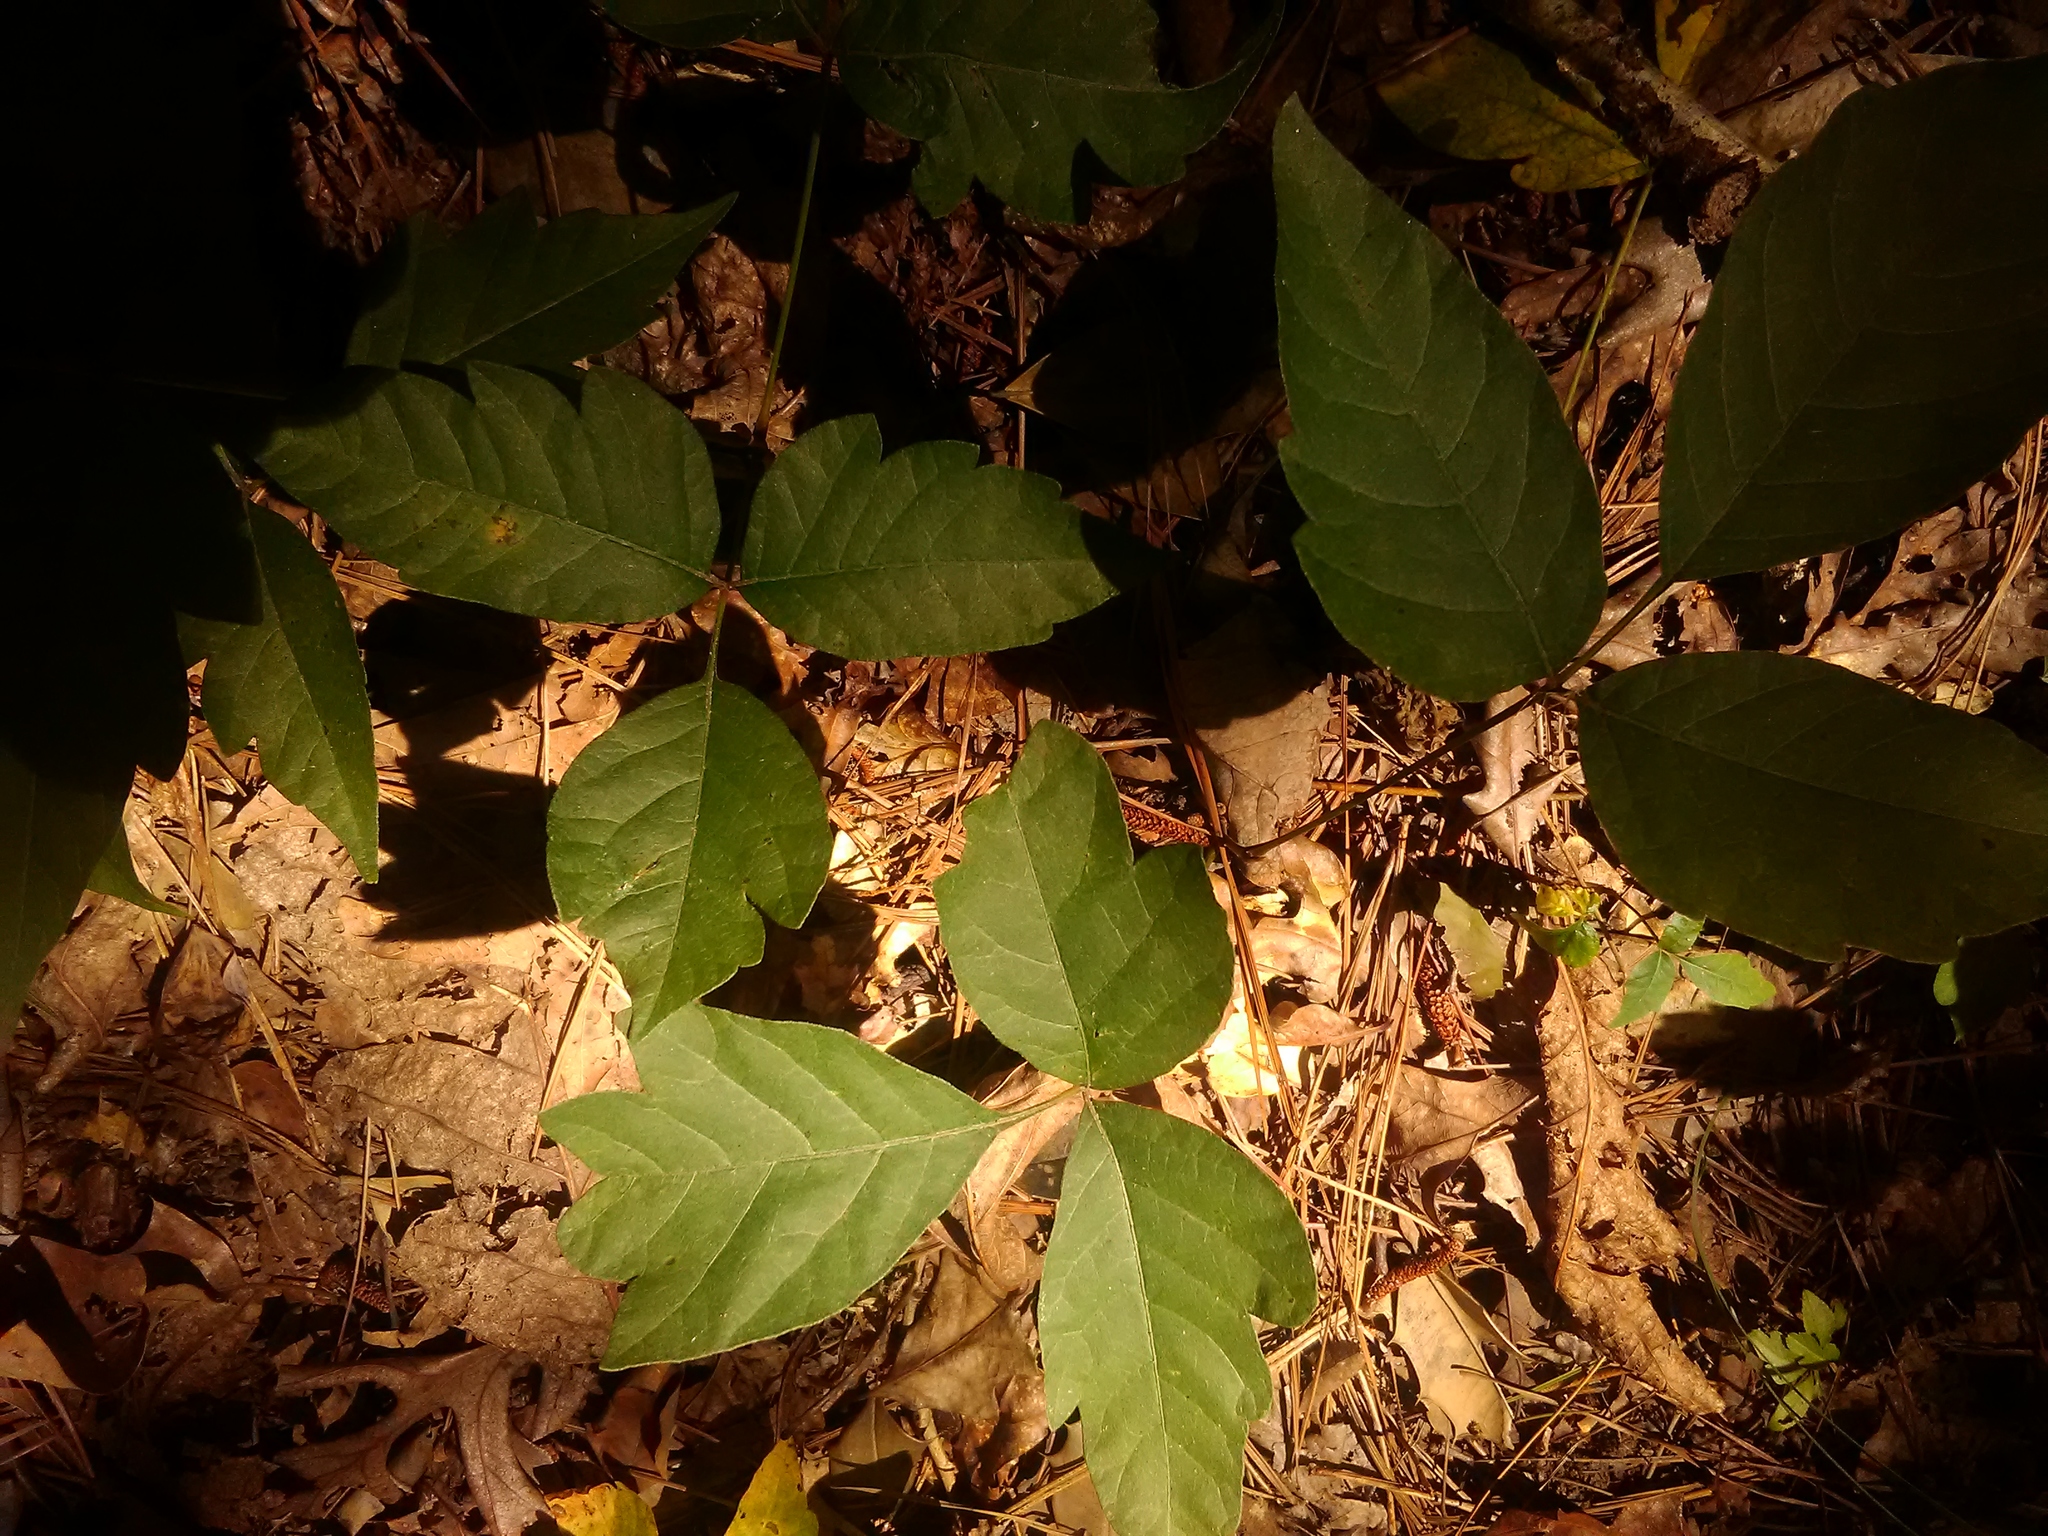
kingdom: Plantae
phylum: Tracheophyta
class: Magnoliopsida
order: Sapindales
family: Anacardiaceae
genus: Toxicodendron
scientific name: Toxicodendron radicans
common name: Poison ivy
